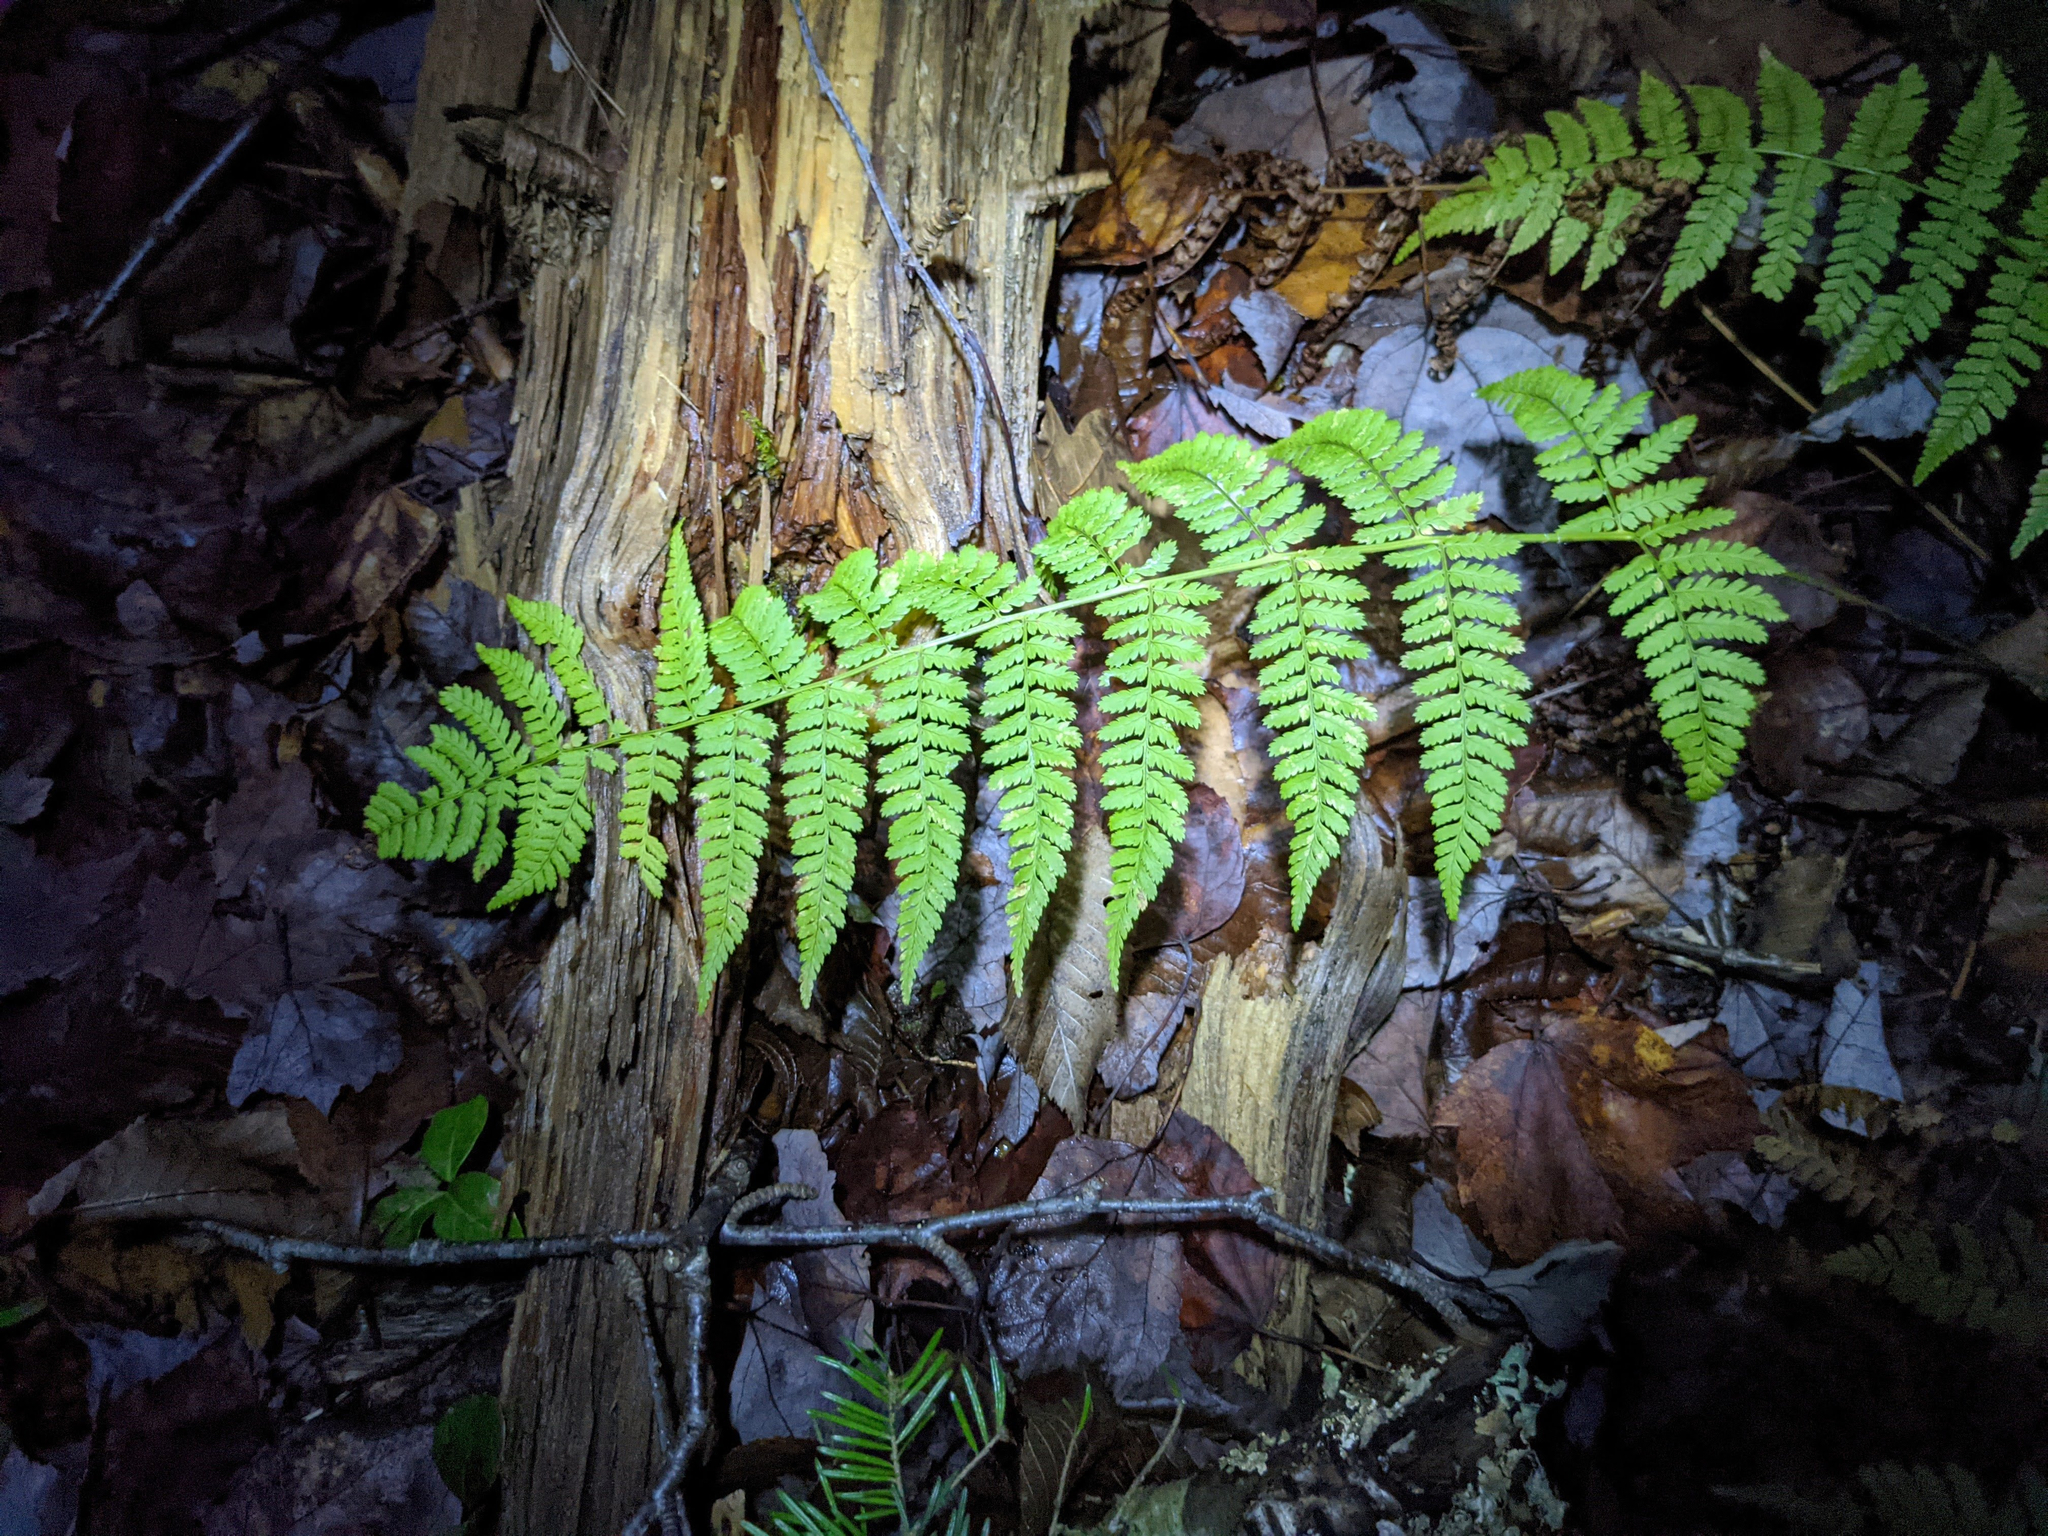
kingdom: Plantae
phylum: Tracheophyta
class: Polypodiopsida
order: Polypodiales
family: Dryopteridaceae
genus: Dryopteris
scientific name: Dryopteris intermedia
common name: Evergreen wood fern
